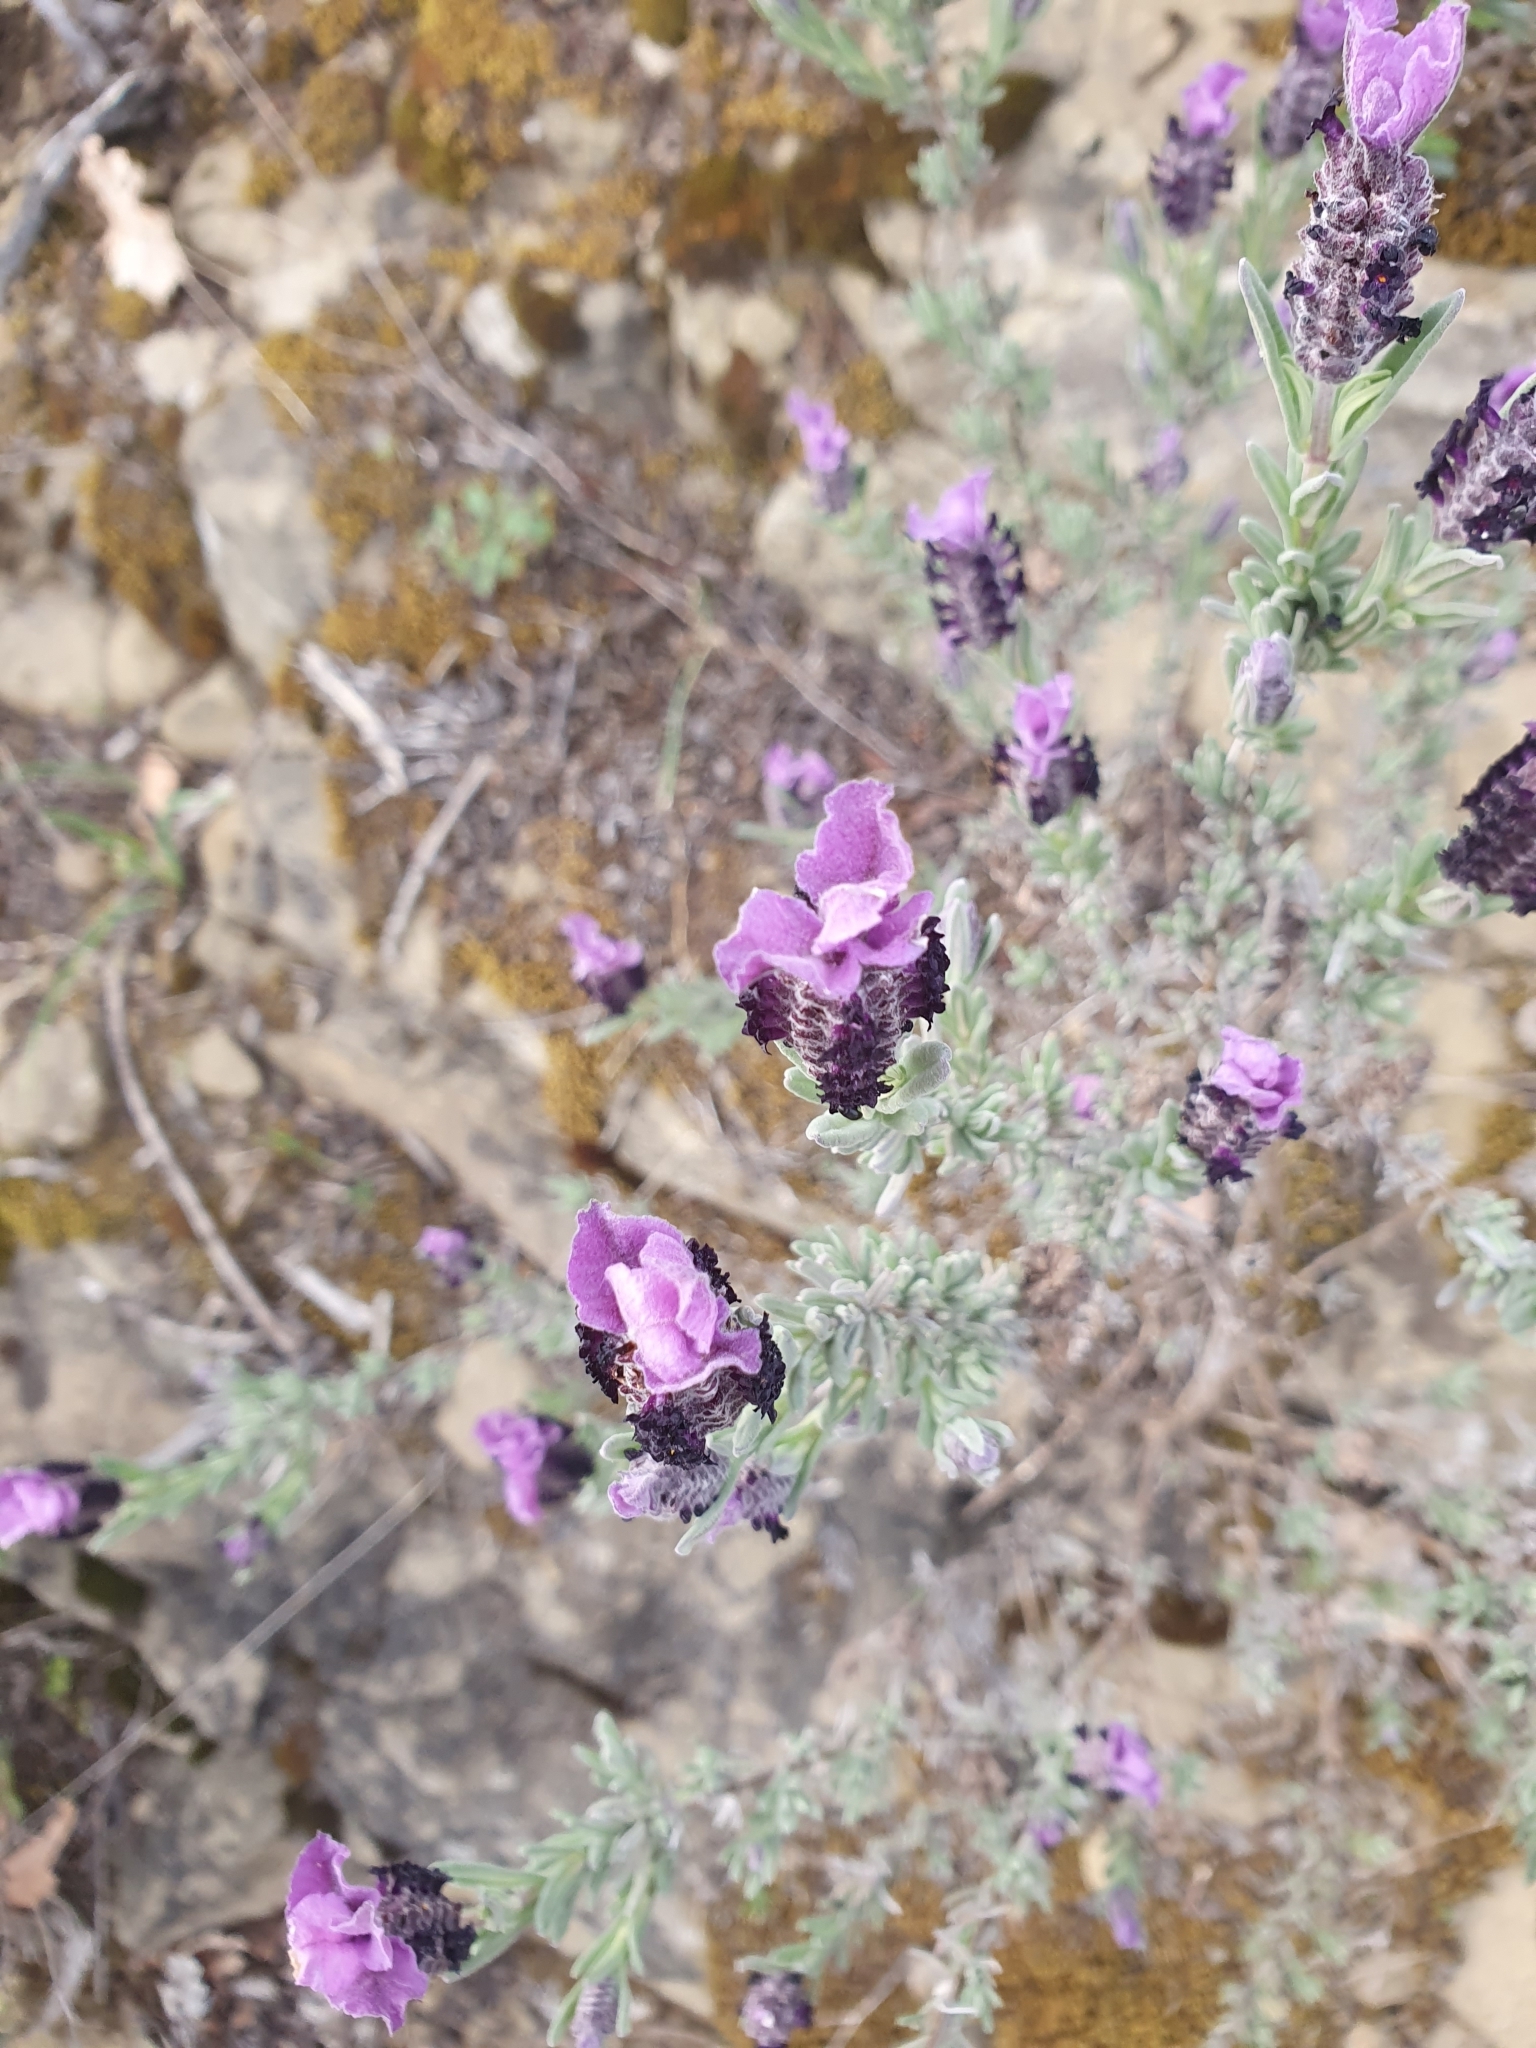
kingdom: Plantae
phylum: Tracheophyta
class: Magnoliopsida
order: Lamiales
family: Lamiaceae
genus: Lavandula
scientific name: Lavandula stoechas
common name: French lavender
